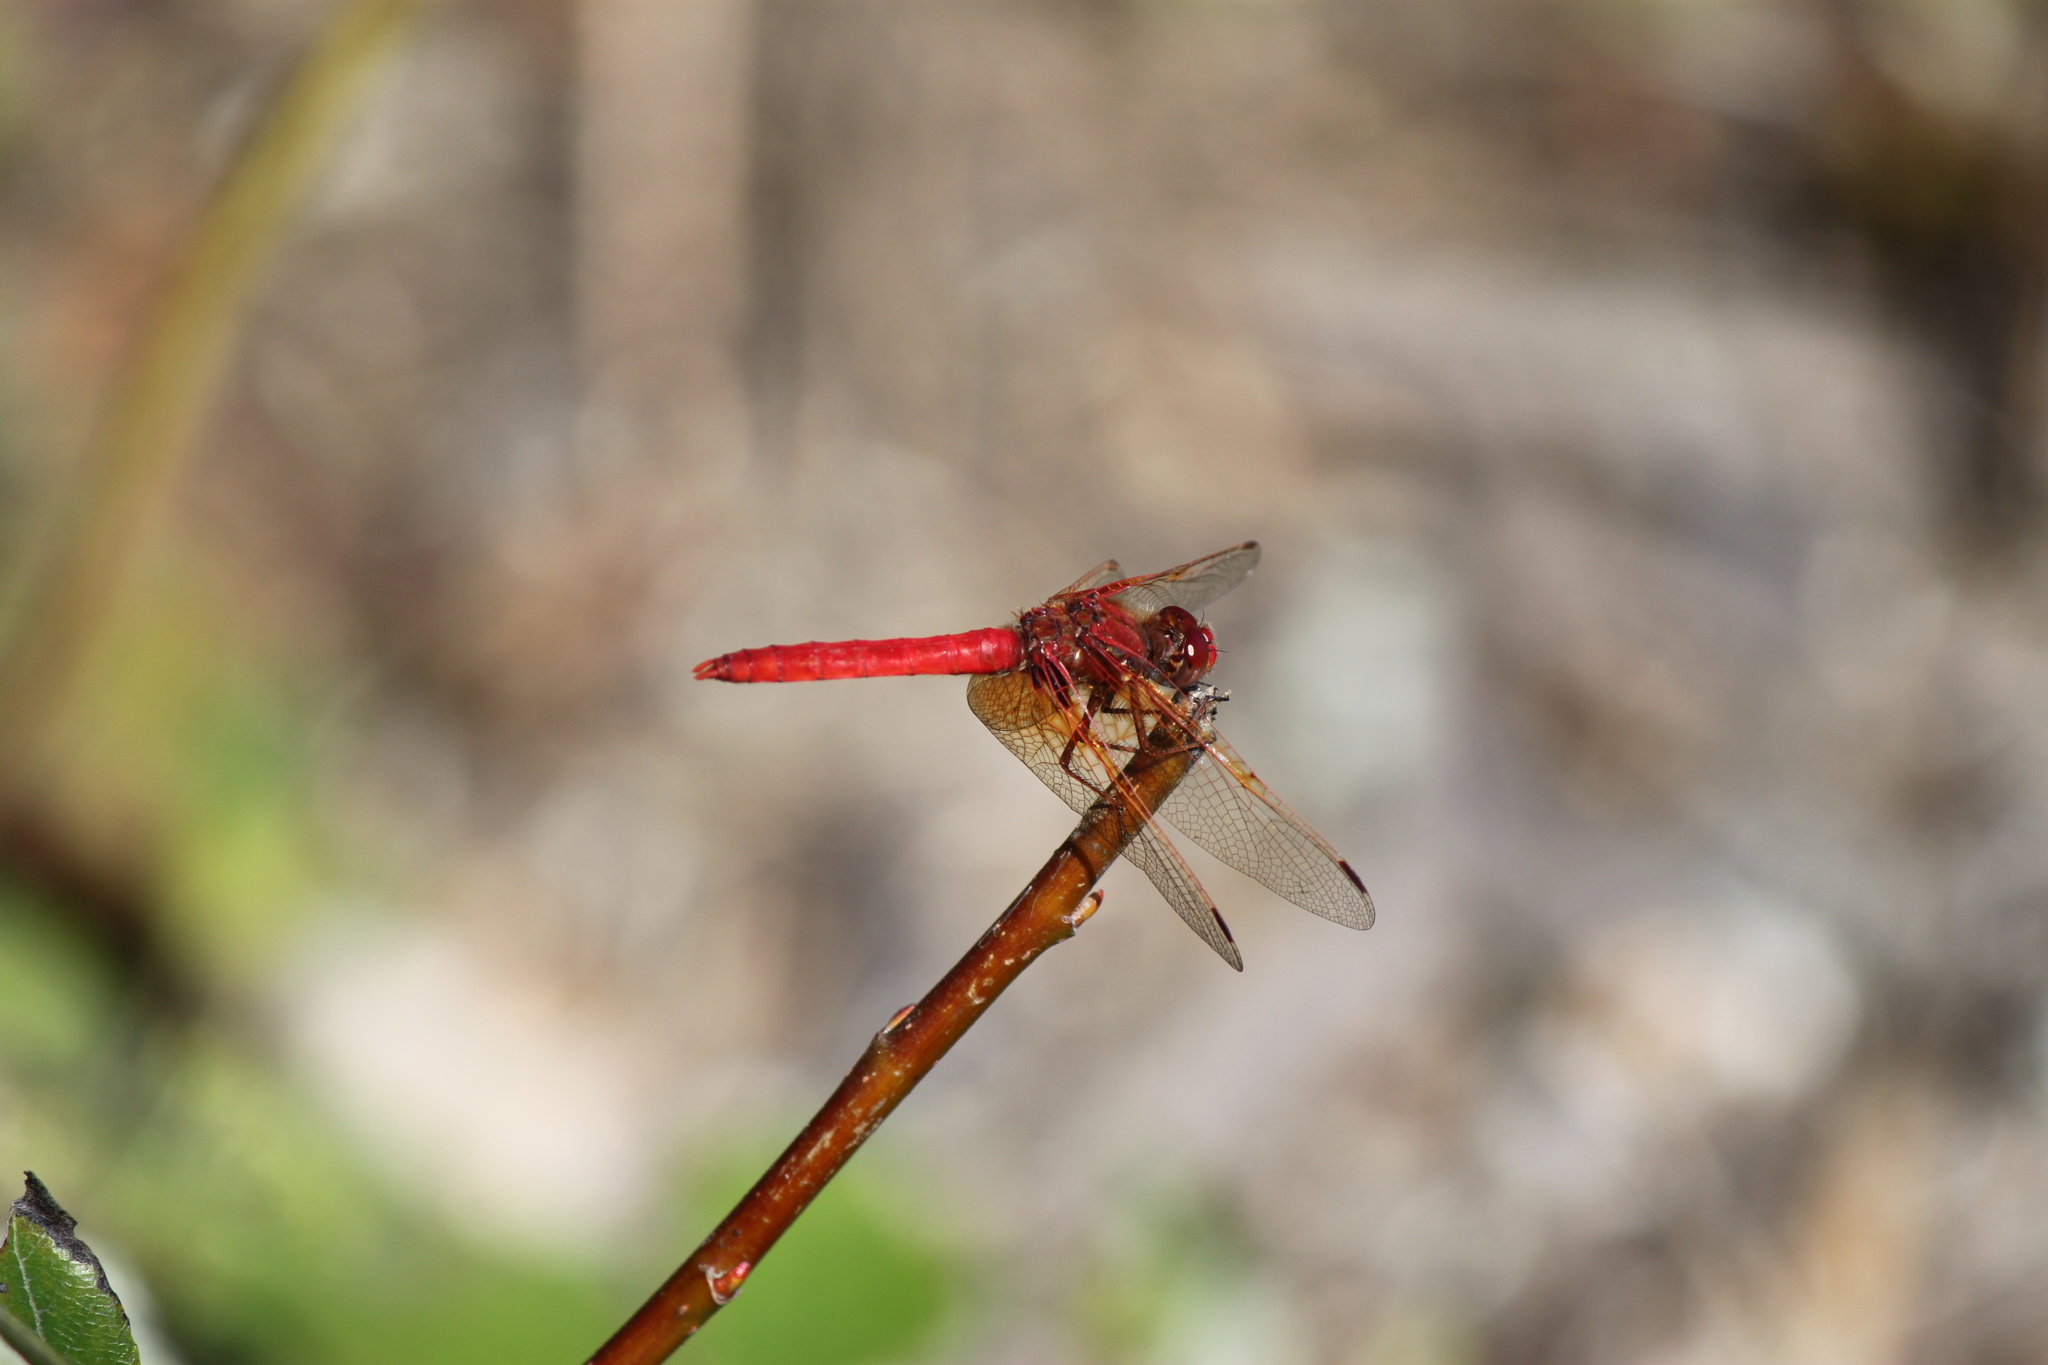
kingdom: Animalia
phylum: Arthropoda
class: Insecta
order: Odonata
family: Libellulidae
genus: Sympetrum
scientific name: Sympetrum illotum
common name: Cardinal meadowhawk
